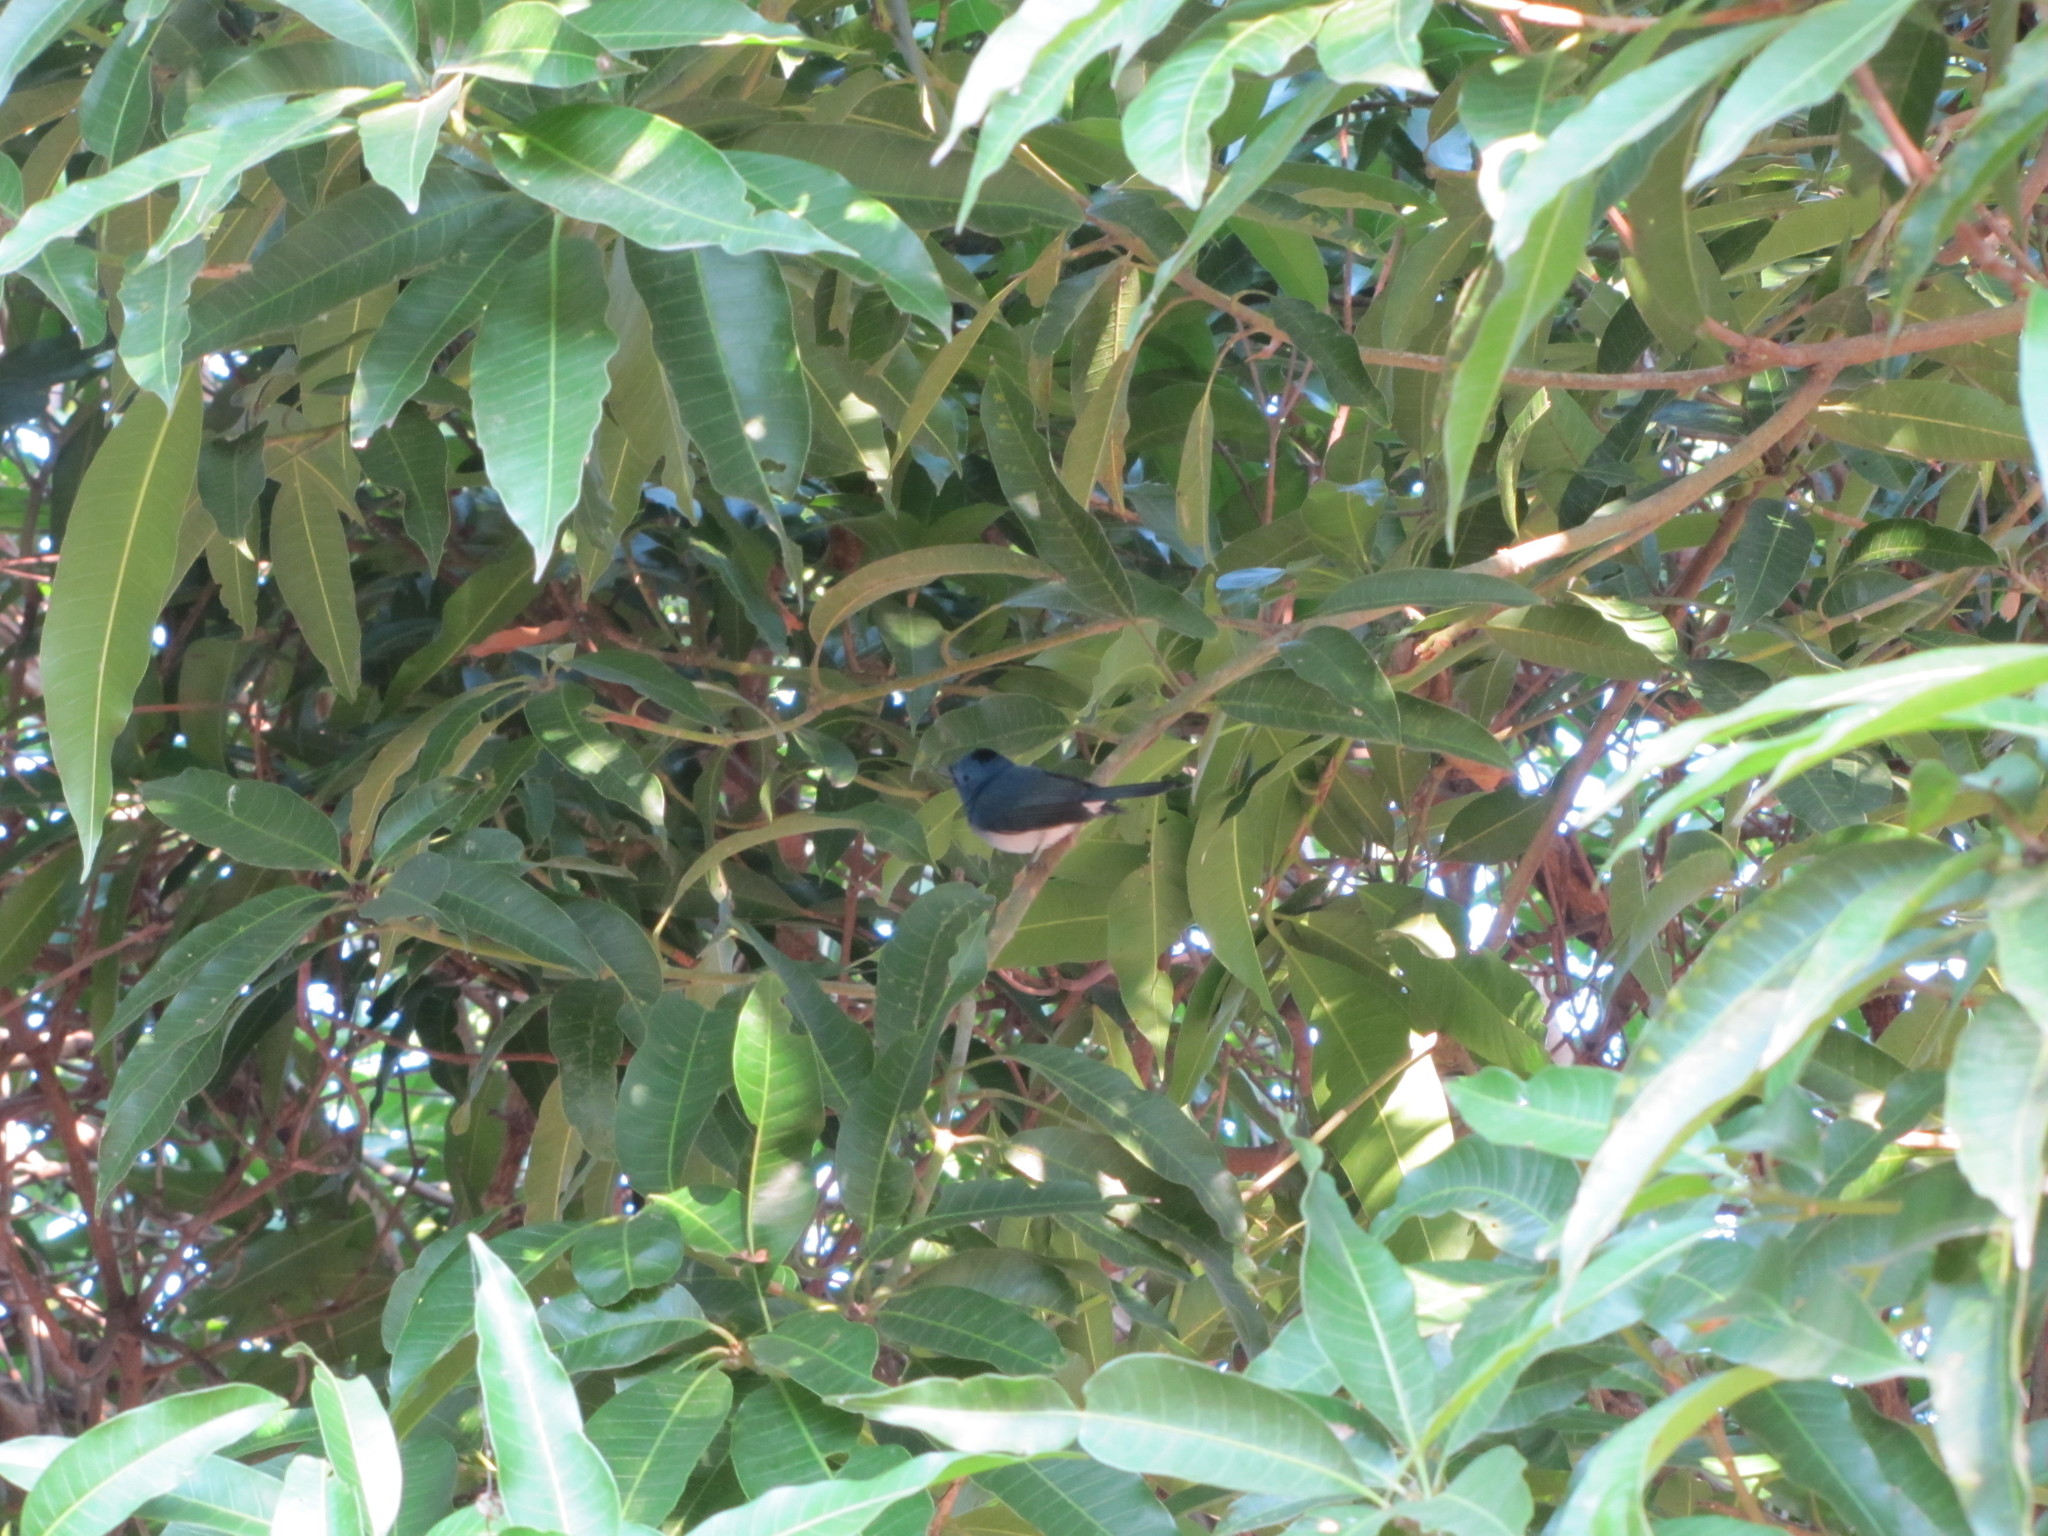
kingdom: Animalia
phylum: Chordata
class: Aves
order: Passeriformes
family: Monarchidae
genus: Hypothymis
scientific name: Hypothymis azurea
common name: Black-naped monarch
